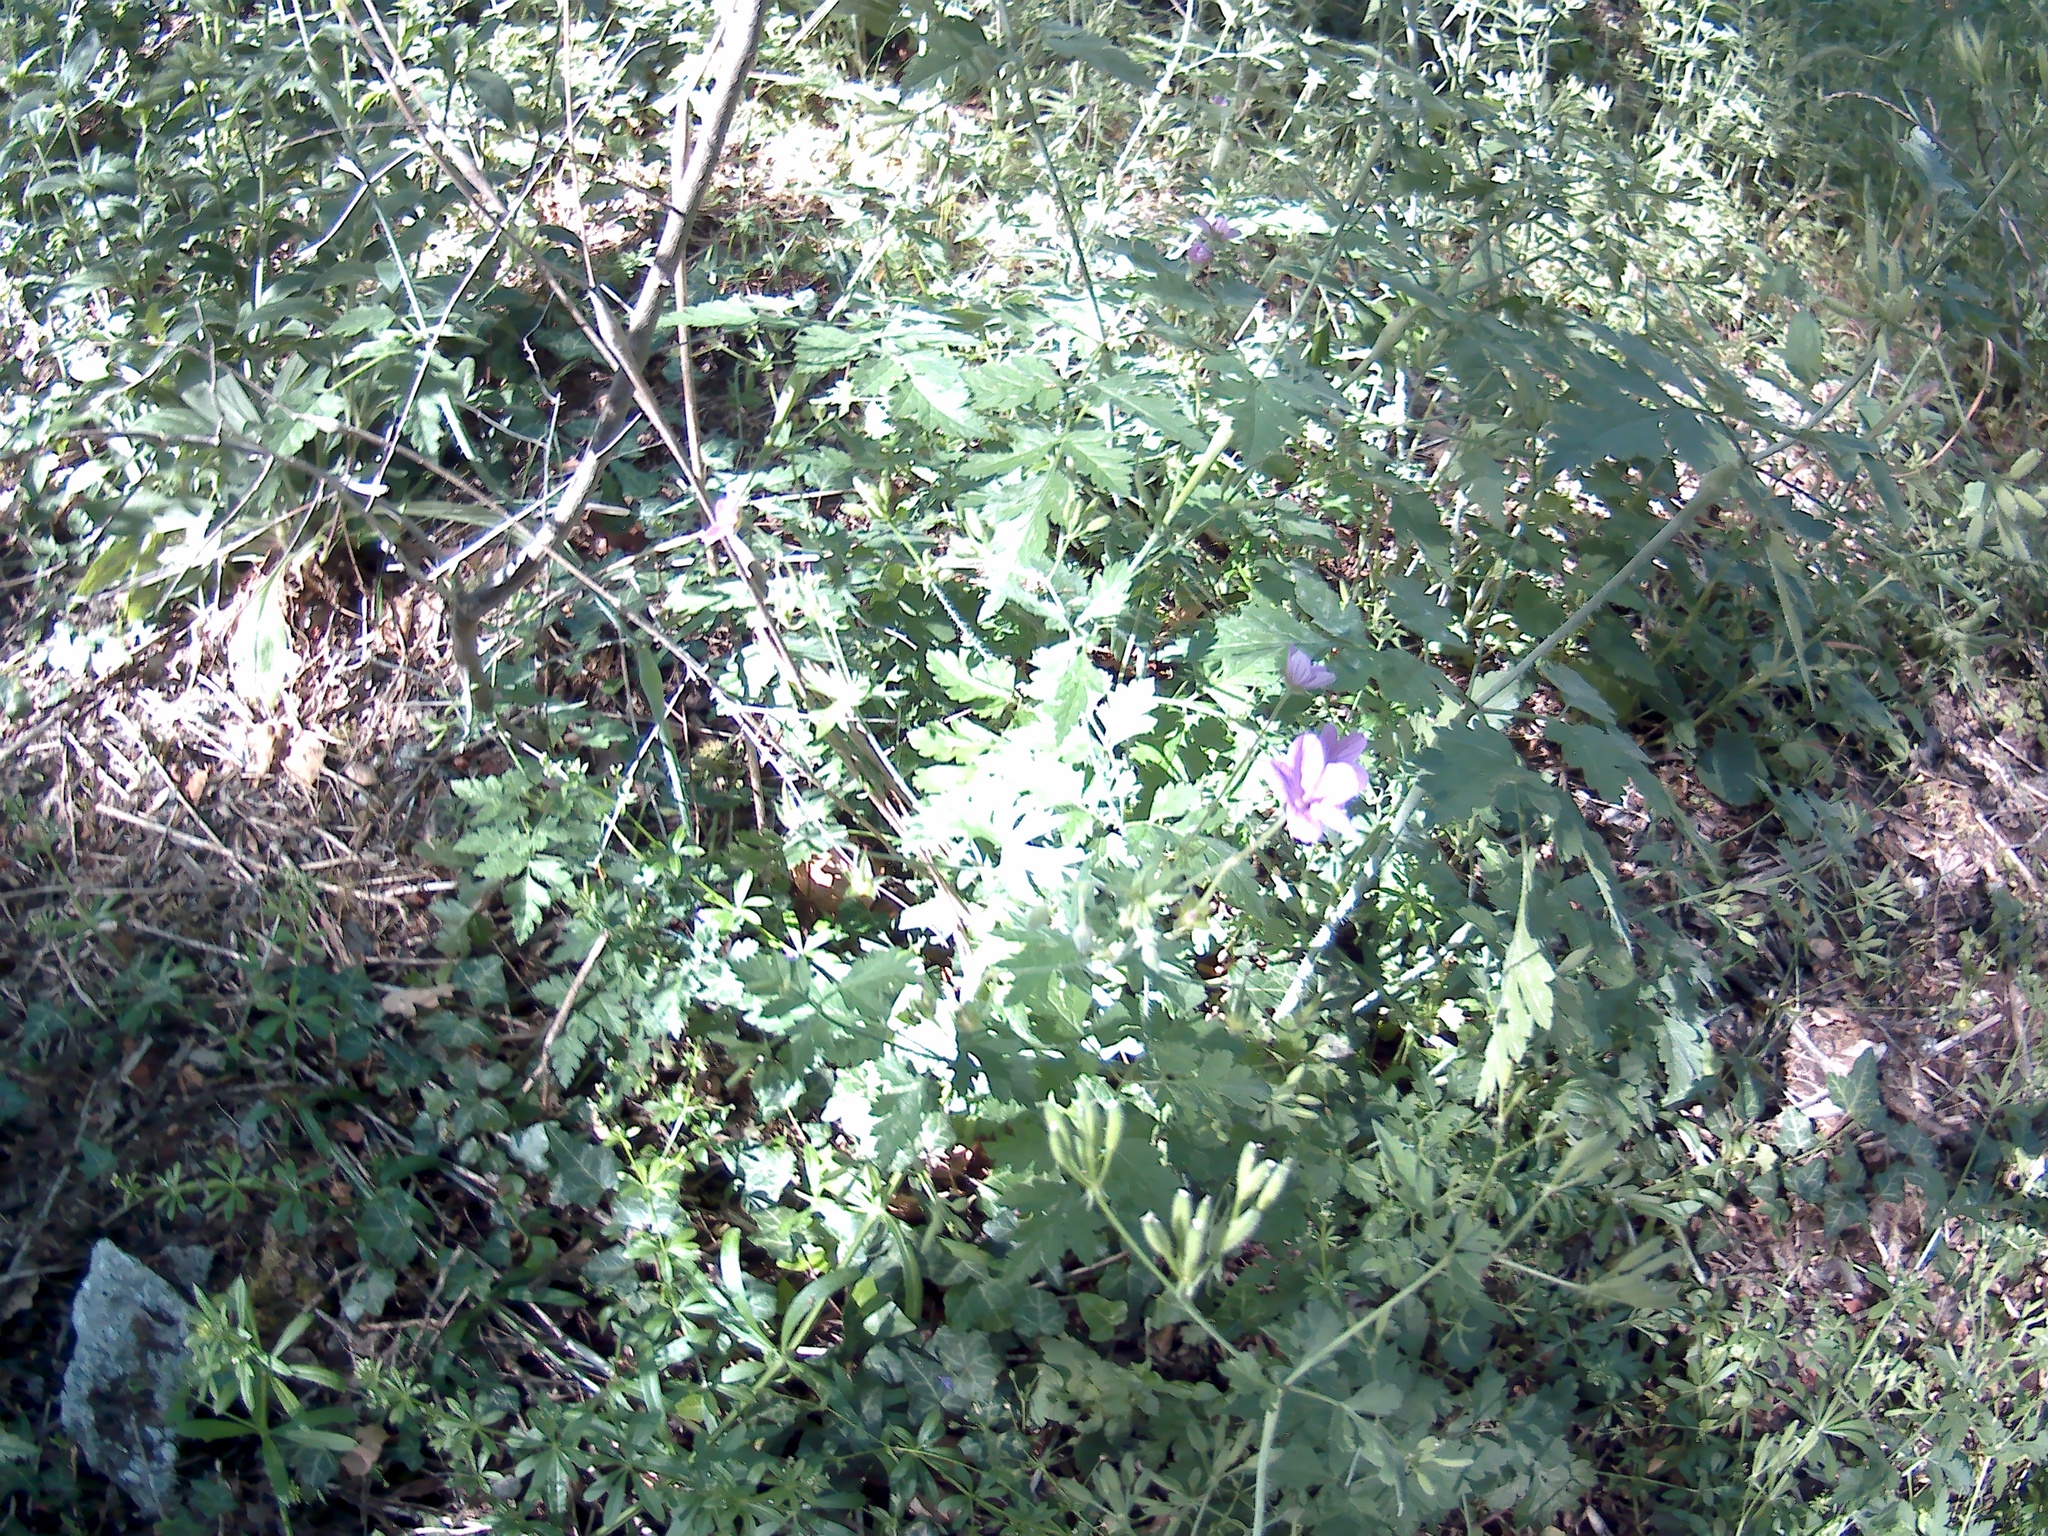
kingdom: Plantae
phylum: Tracheophyta
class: Magnoliopsida
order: Geraniales
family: Geraniaceae
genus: Geranium
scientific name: Geranium asphodeloides
